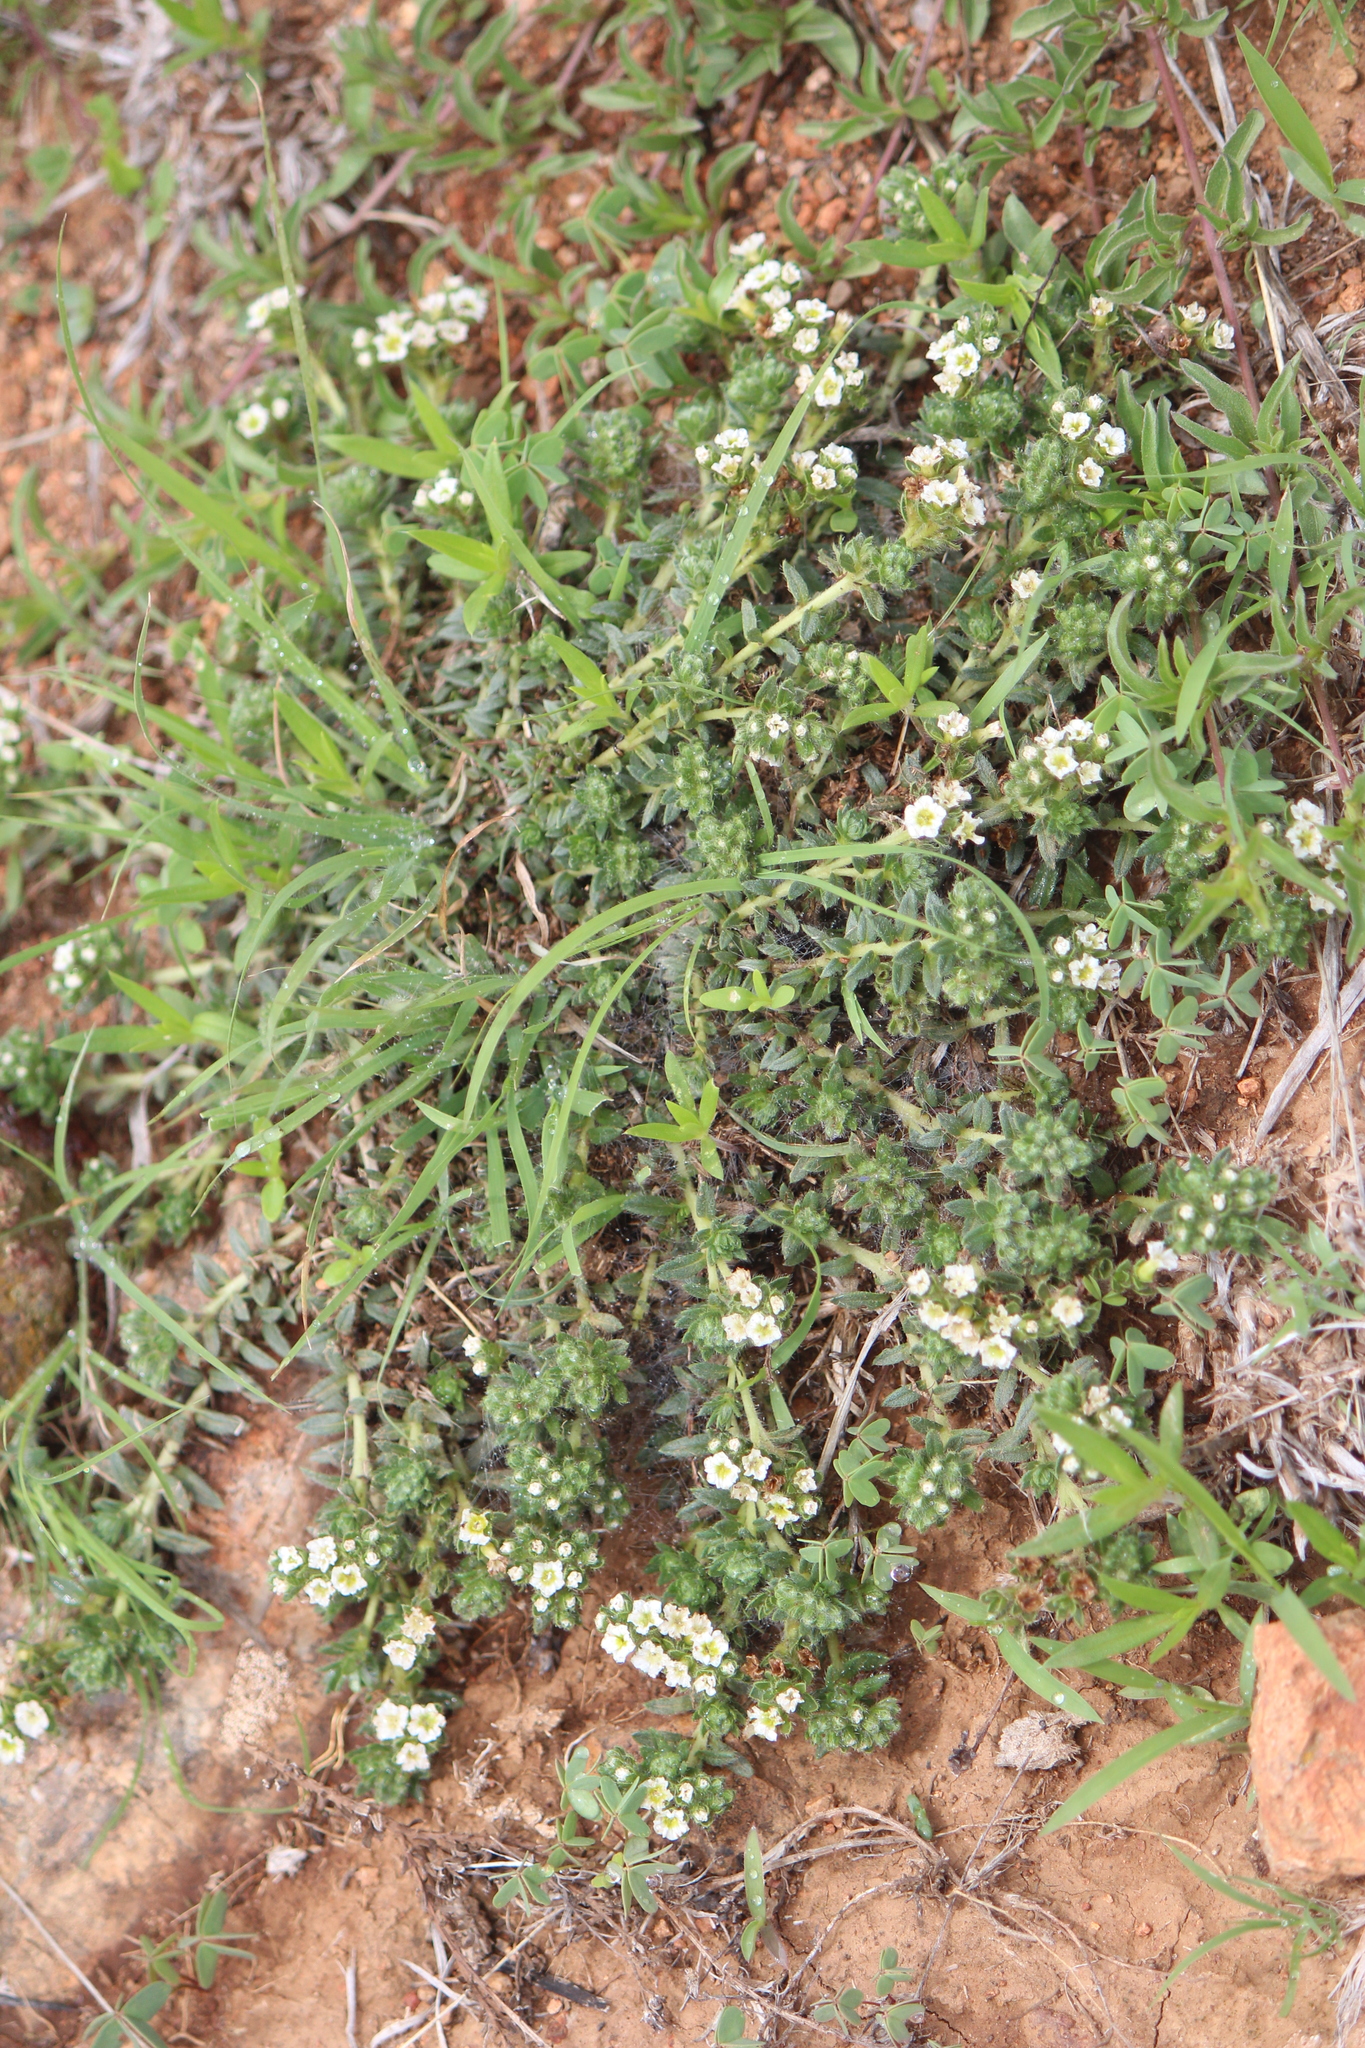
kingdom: Plantae
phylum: Tracheophyta
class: Magnoliopsida
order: Boraginales
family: Heliotropiaceae
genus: Euploca
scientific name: Euploca foliosissima
